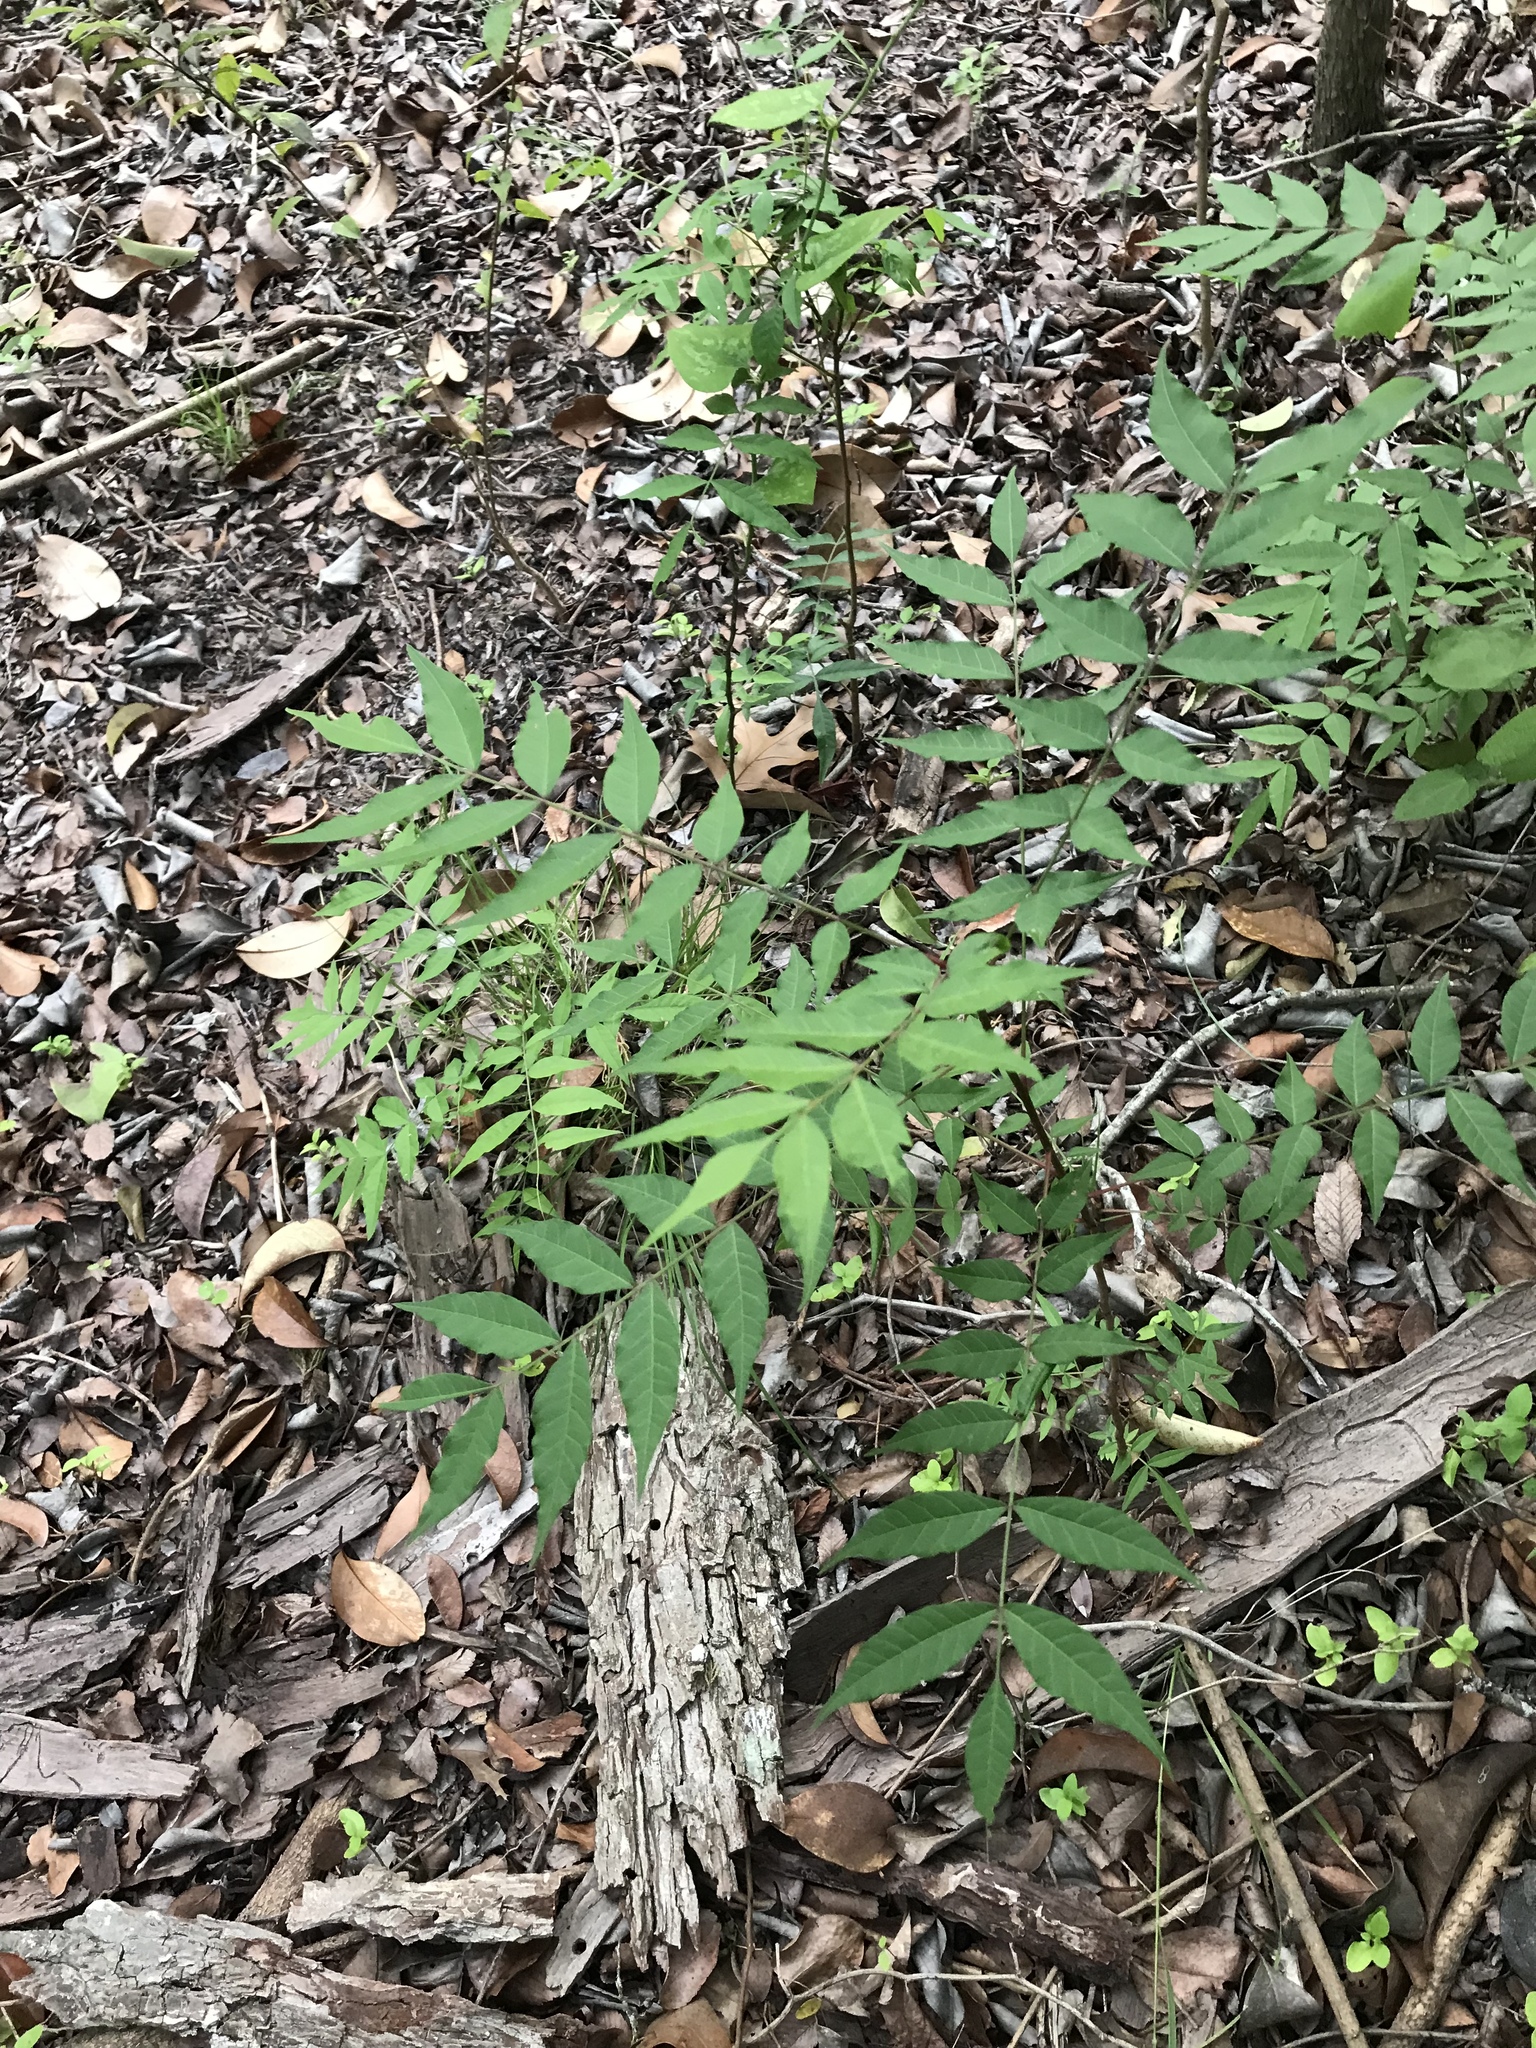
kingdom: Plantae
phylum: Tracheophyta
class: Magnoliopsida
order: Sapindales
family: Anacardiaceae
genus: Pistacia
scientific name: Pistacia chinensis
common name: Chinese pistache
